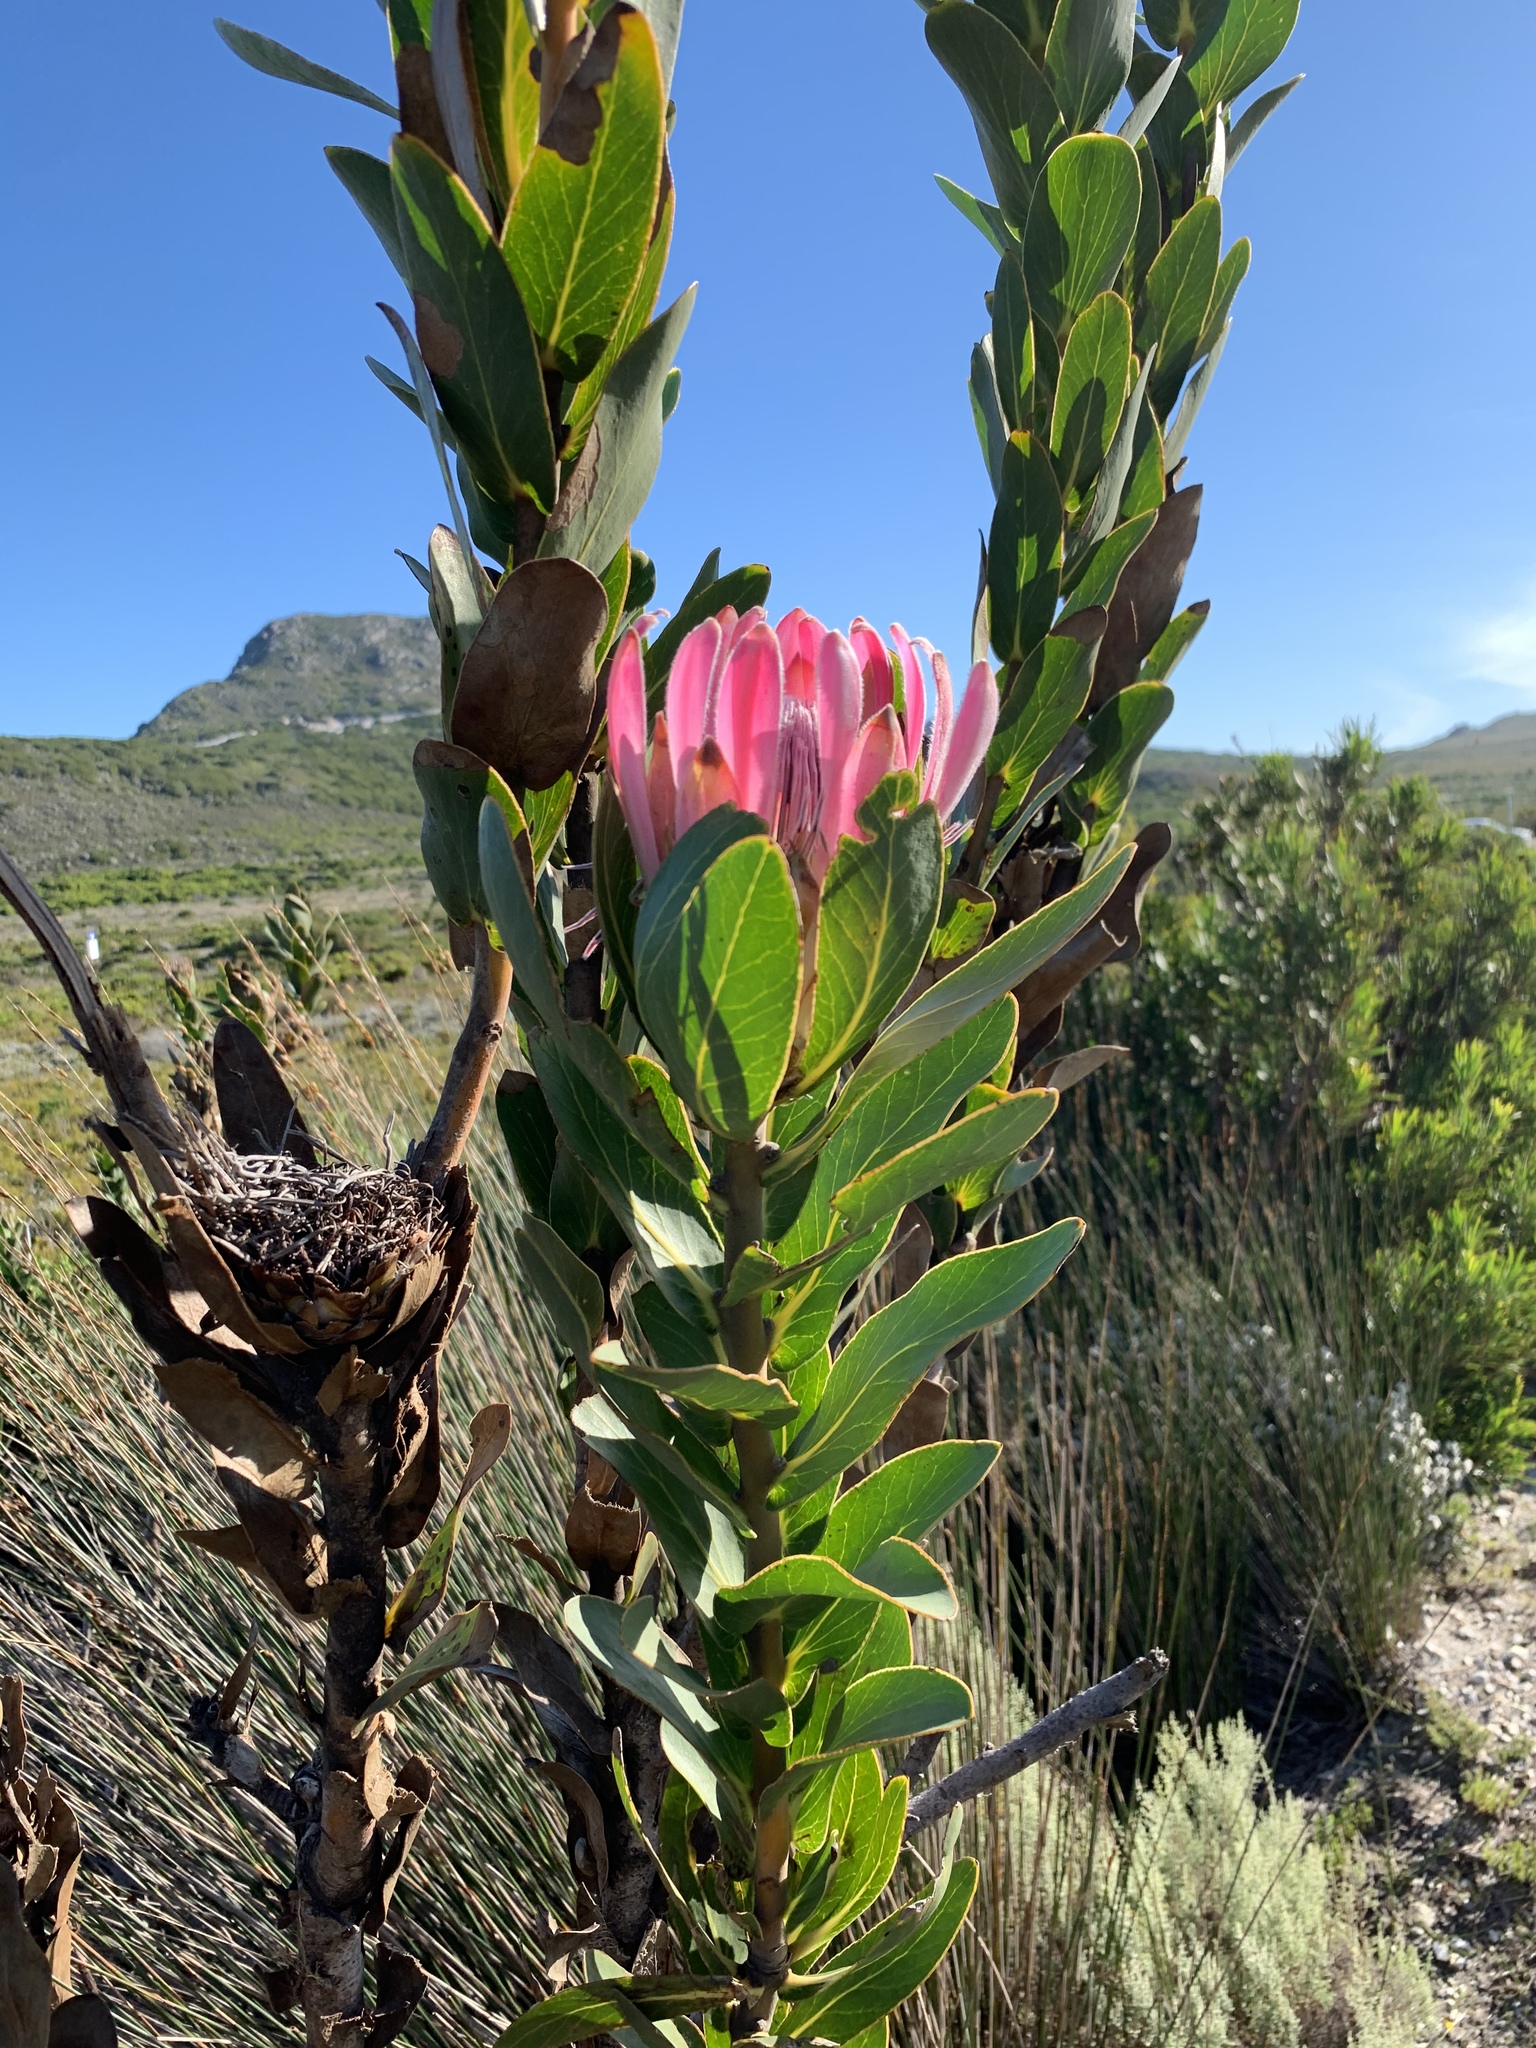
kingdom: Plantae
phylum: Tracheophyta
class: Magnoliopsida
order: Proteales
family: Proteaceae
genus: Protea
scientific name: Protea compacta
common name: Bot river protea
